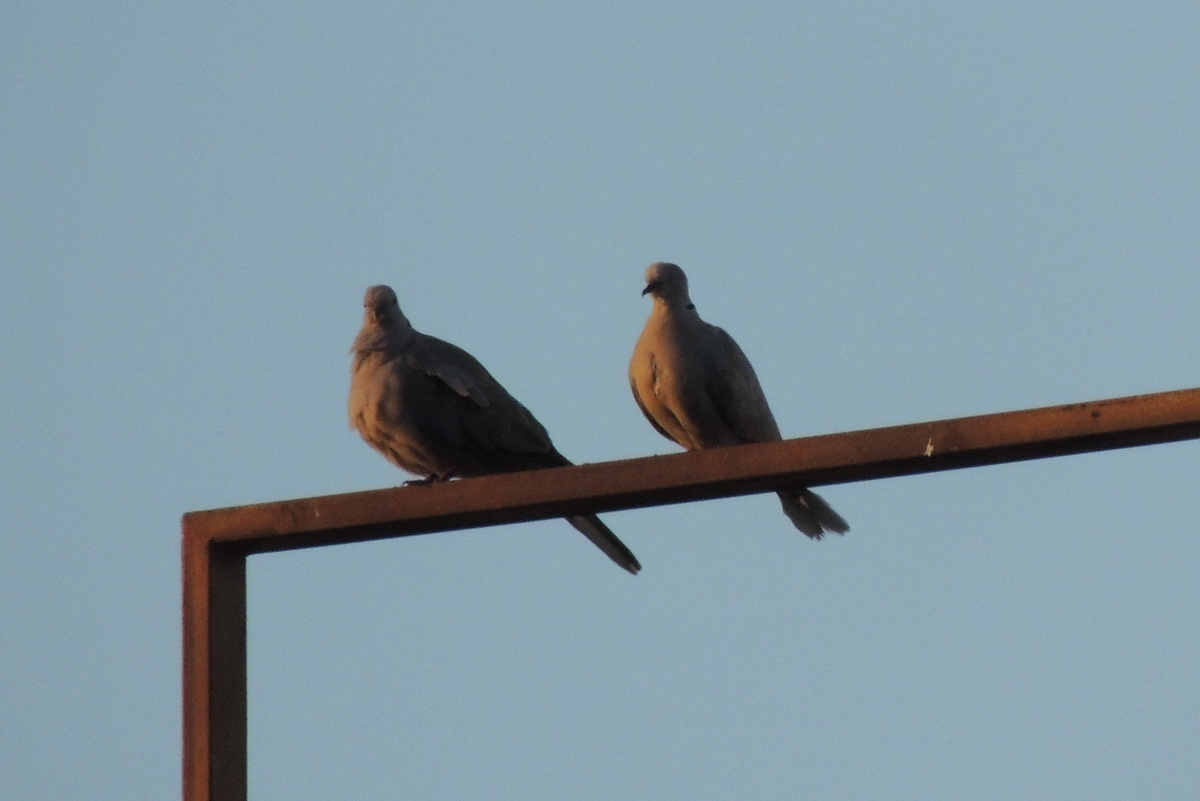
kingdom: Animalia
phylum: Chordata
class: Aves
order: Columbiformes
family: Columbidae
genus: Streptopelia
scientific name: Streptopelia decaocto
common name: Eurasian collared dove
